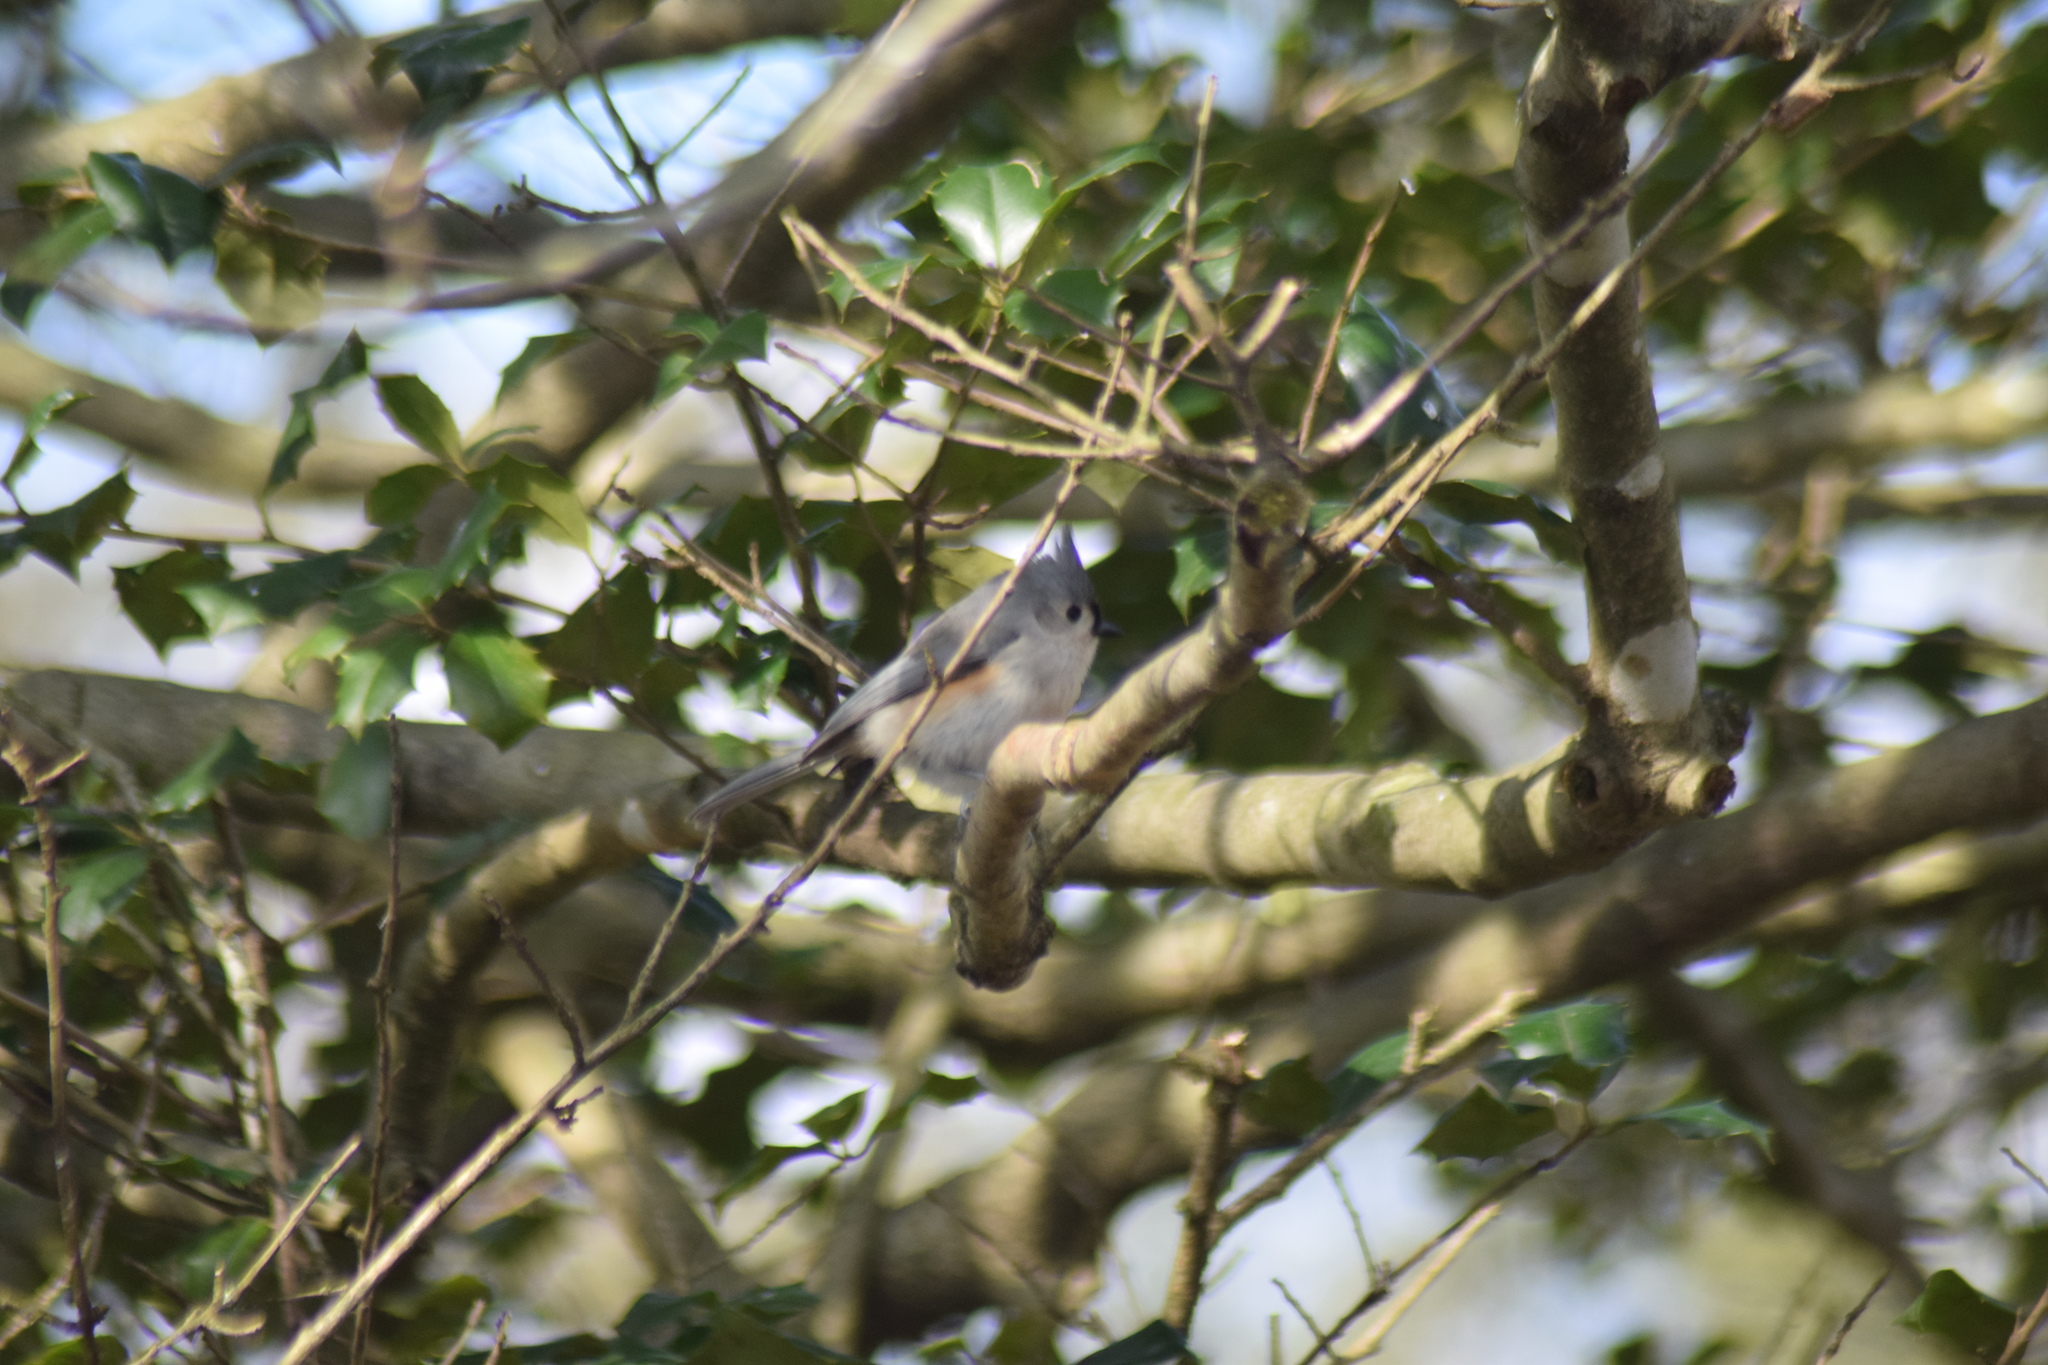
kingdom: Animalia
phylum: Chordata
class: Aves
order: Passeriformes
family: Paridae
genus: Baeolophus
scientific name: Baeolophus bicolor
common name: Tufted titmouse
